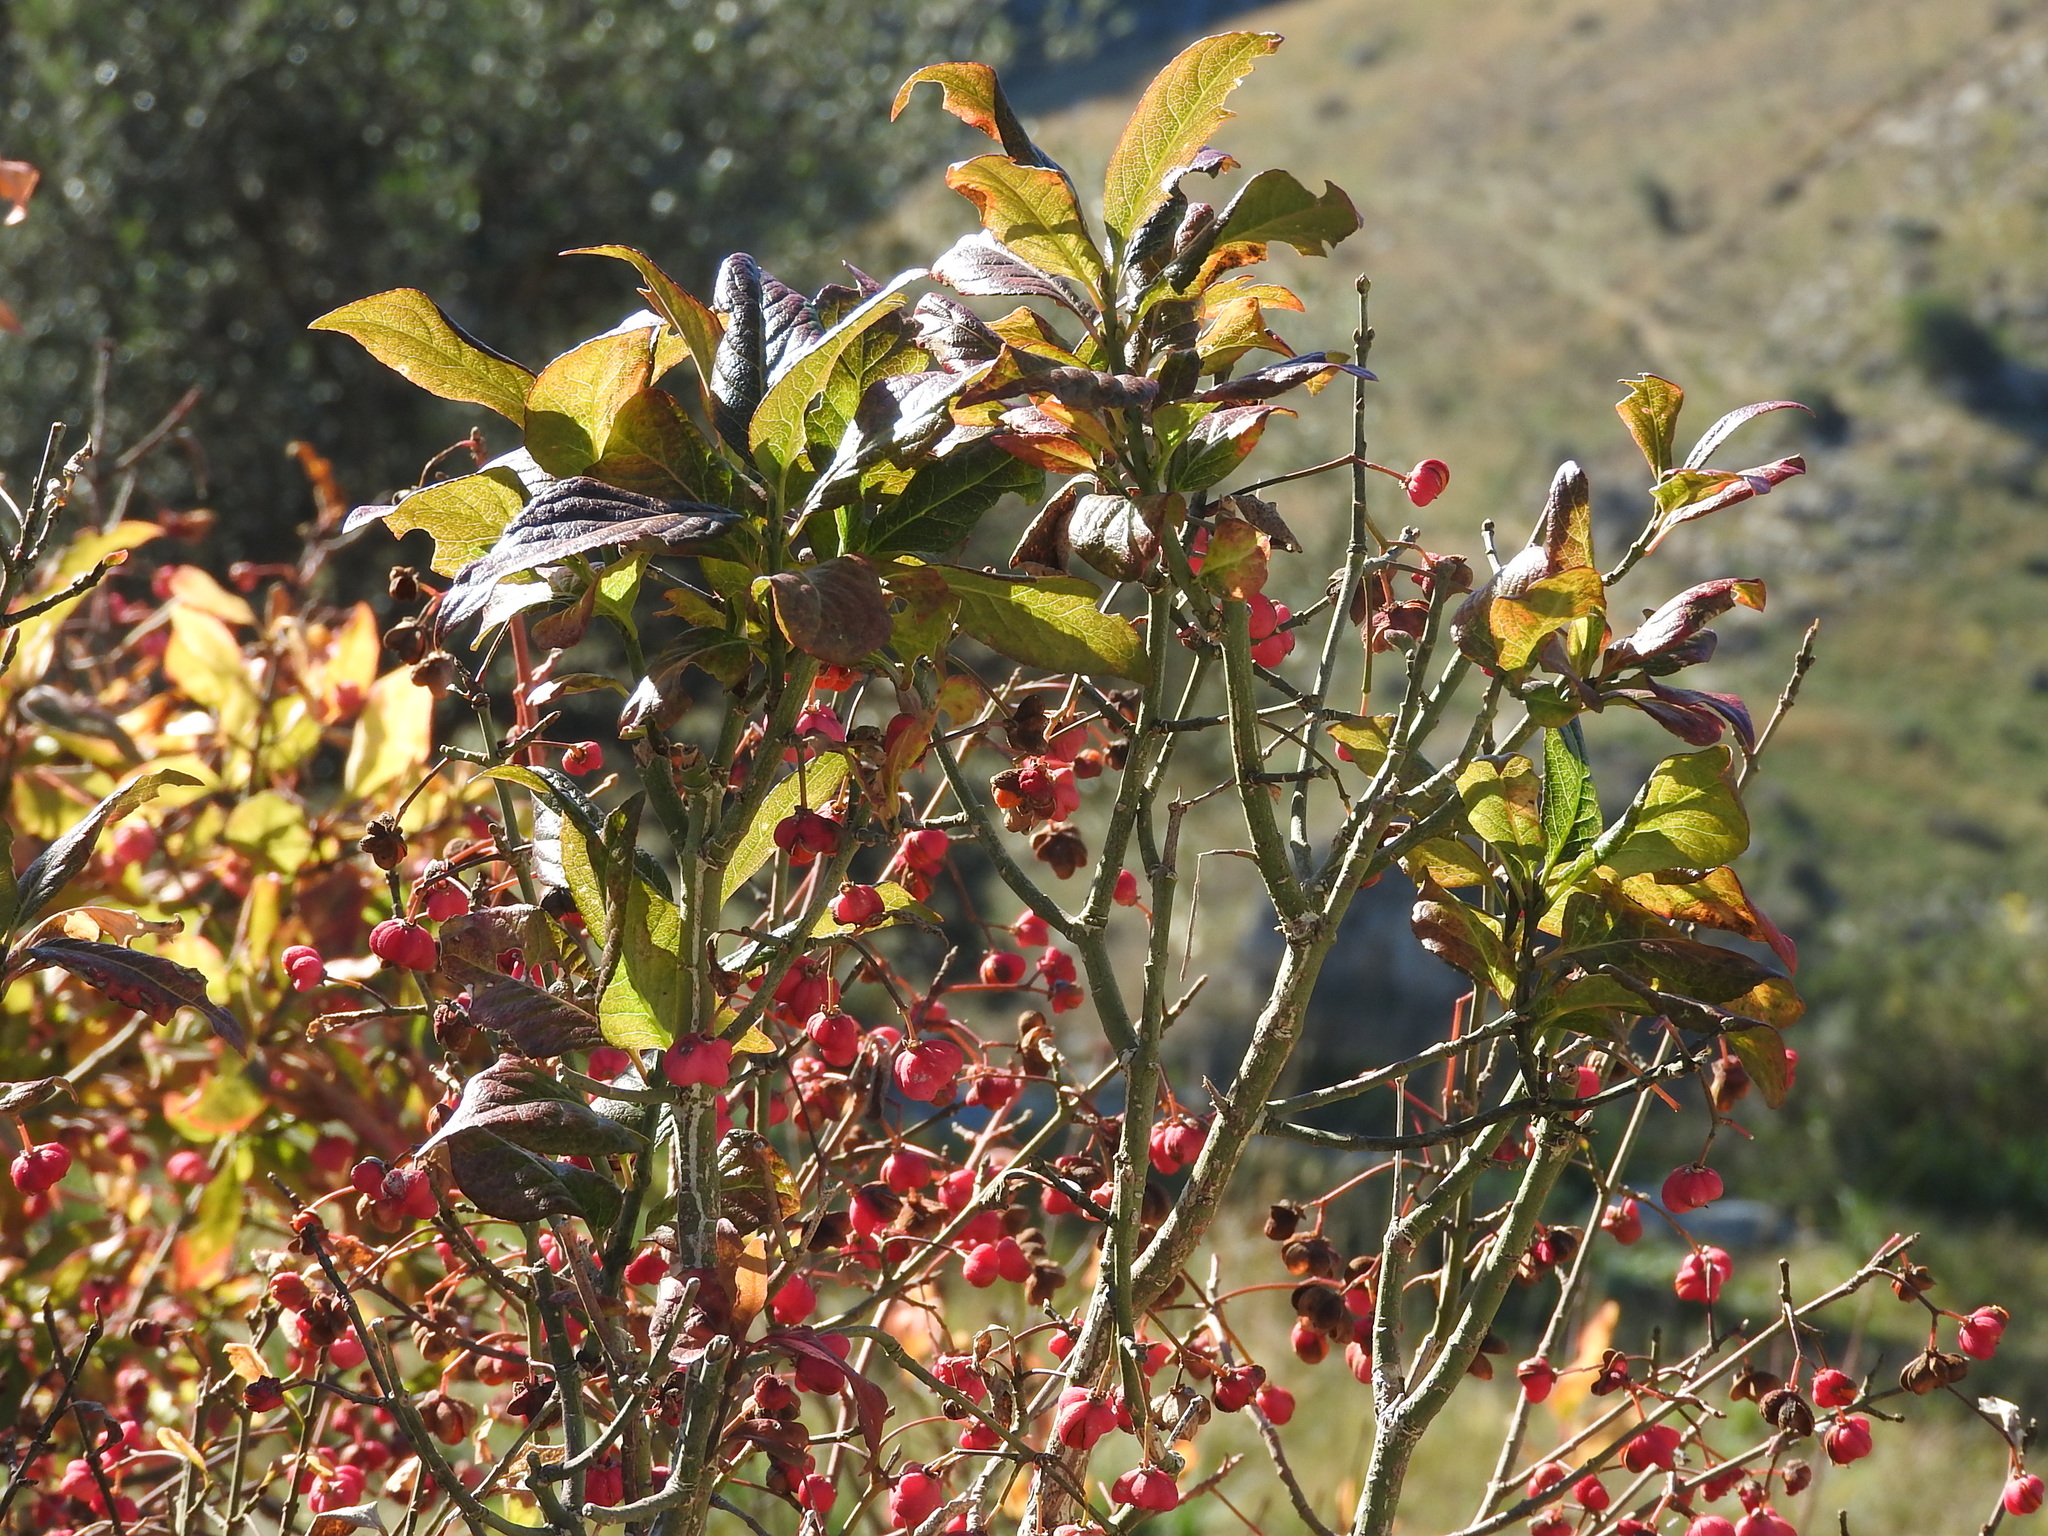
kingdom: Plantae
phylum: Tracheophyta
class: Magnoliopsida
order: Celastrales
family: Celastraceae
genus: Euonymus
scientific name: Euonymus europaeus
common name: Spindle
